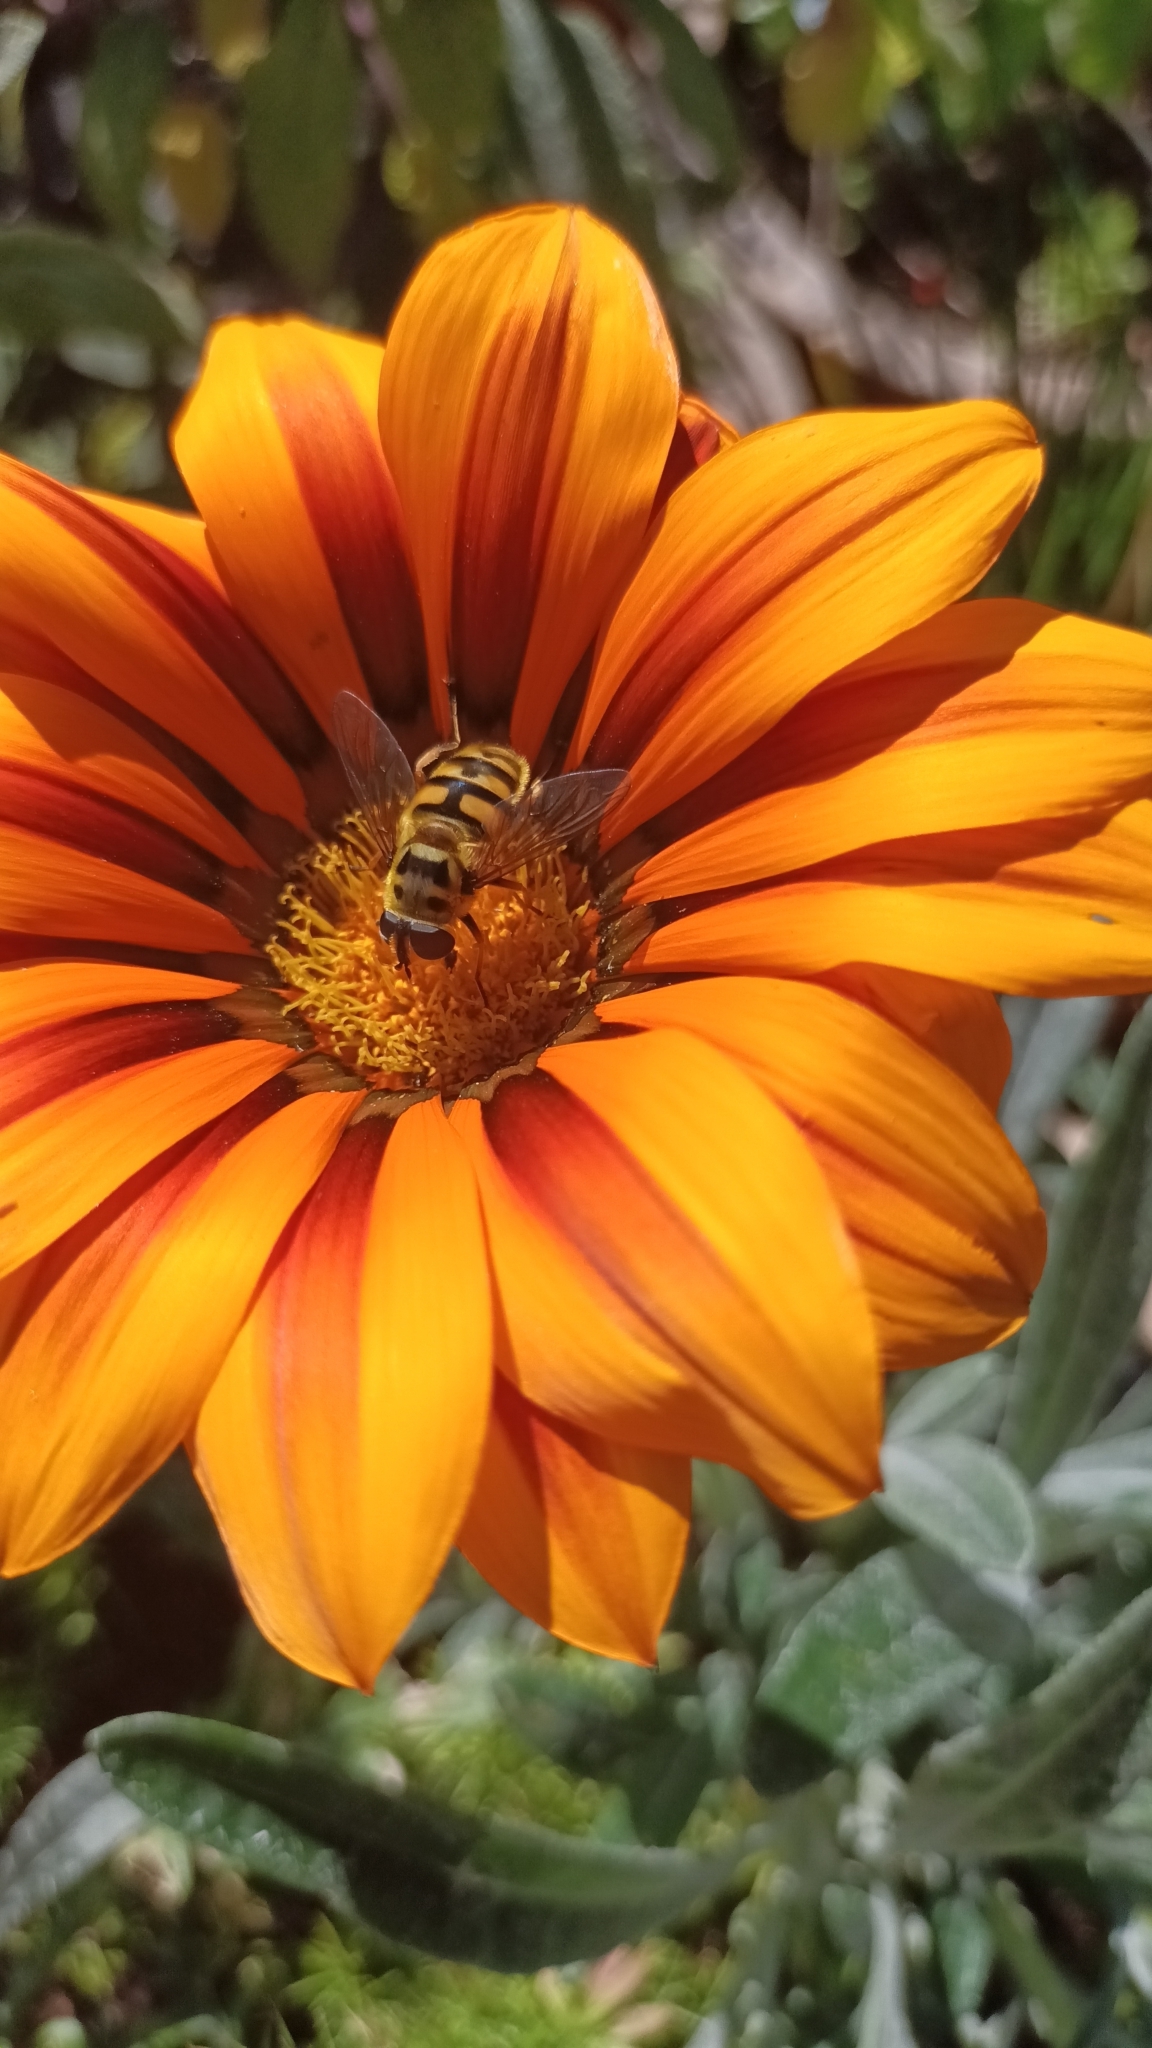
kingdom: Animalia
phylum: Arthropoda
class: Insecta
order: Diptera
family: Syrphidae
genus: Myathropa
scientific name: Myathropa florea
